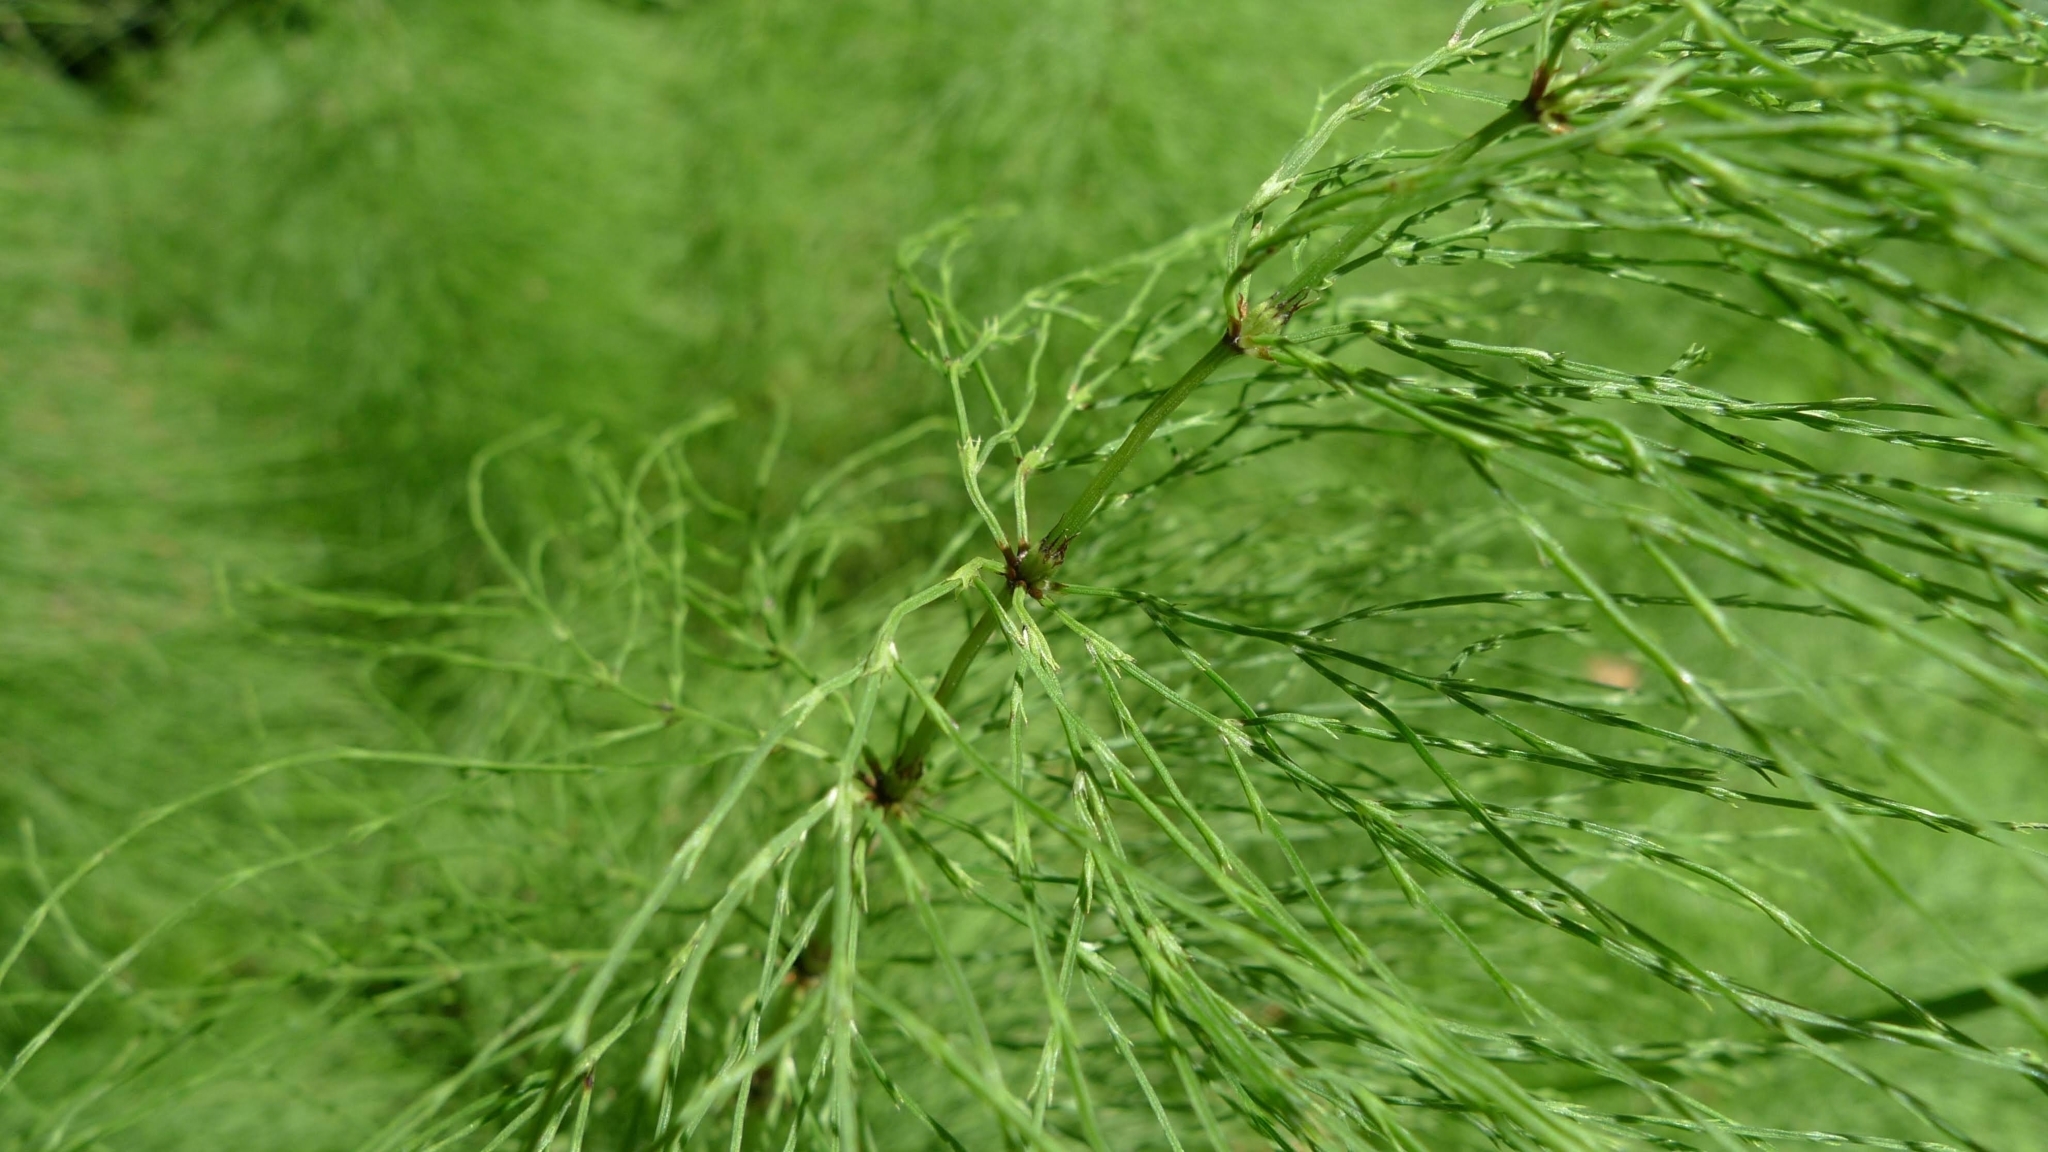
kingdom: Plantae
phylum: Tracheophyta
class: Polypodiopsida
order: Equisetales
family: Equisetaceae
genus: Equisetum
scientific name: Equisetum sylvaticum
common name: Wood horsetail
